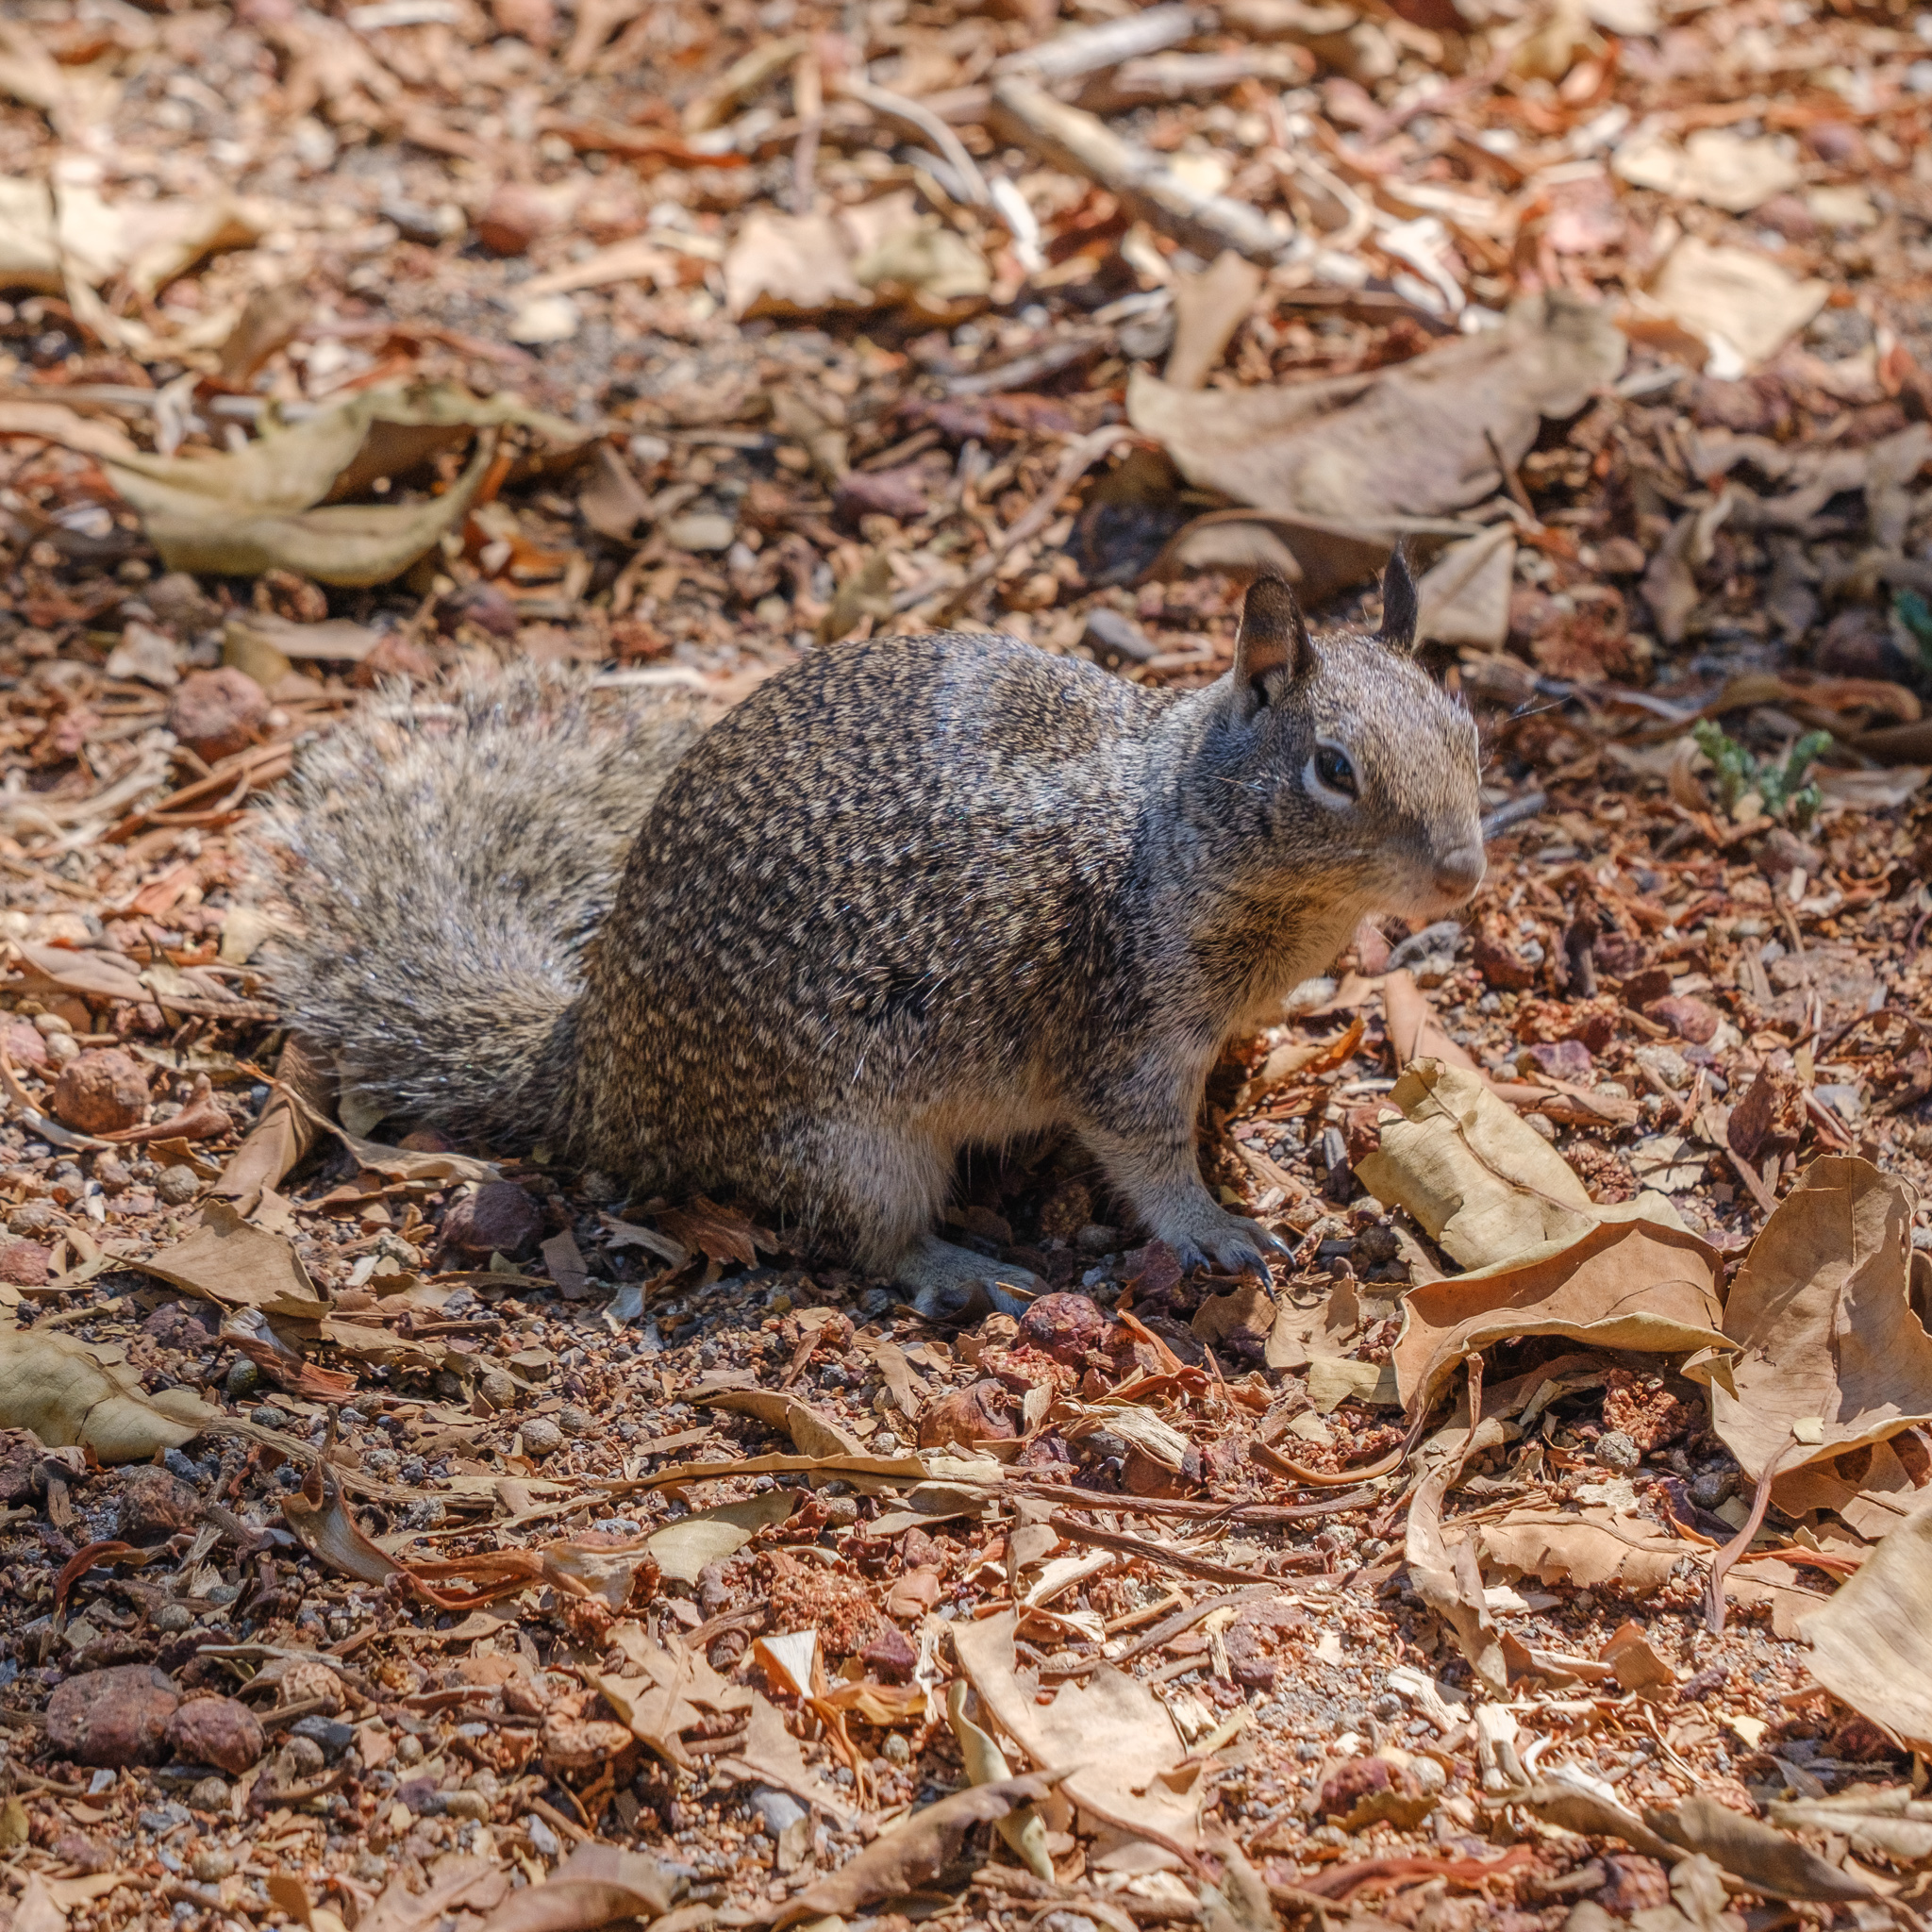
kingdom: Animalia
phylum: Chordata
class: Mammalia
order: Rodentia
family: Sciuridae
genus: Otospermophilus
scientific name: Otospermophilus beecheyi
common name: California ground squirrel
